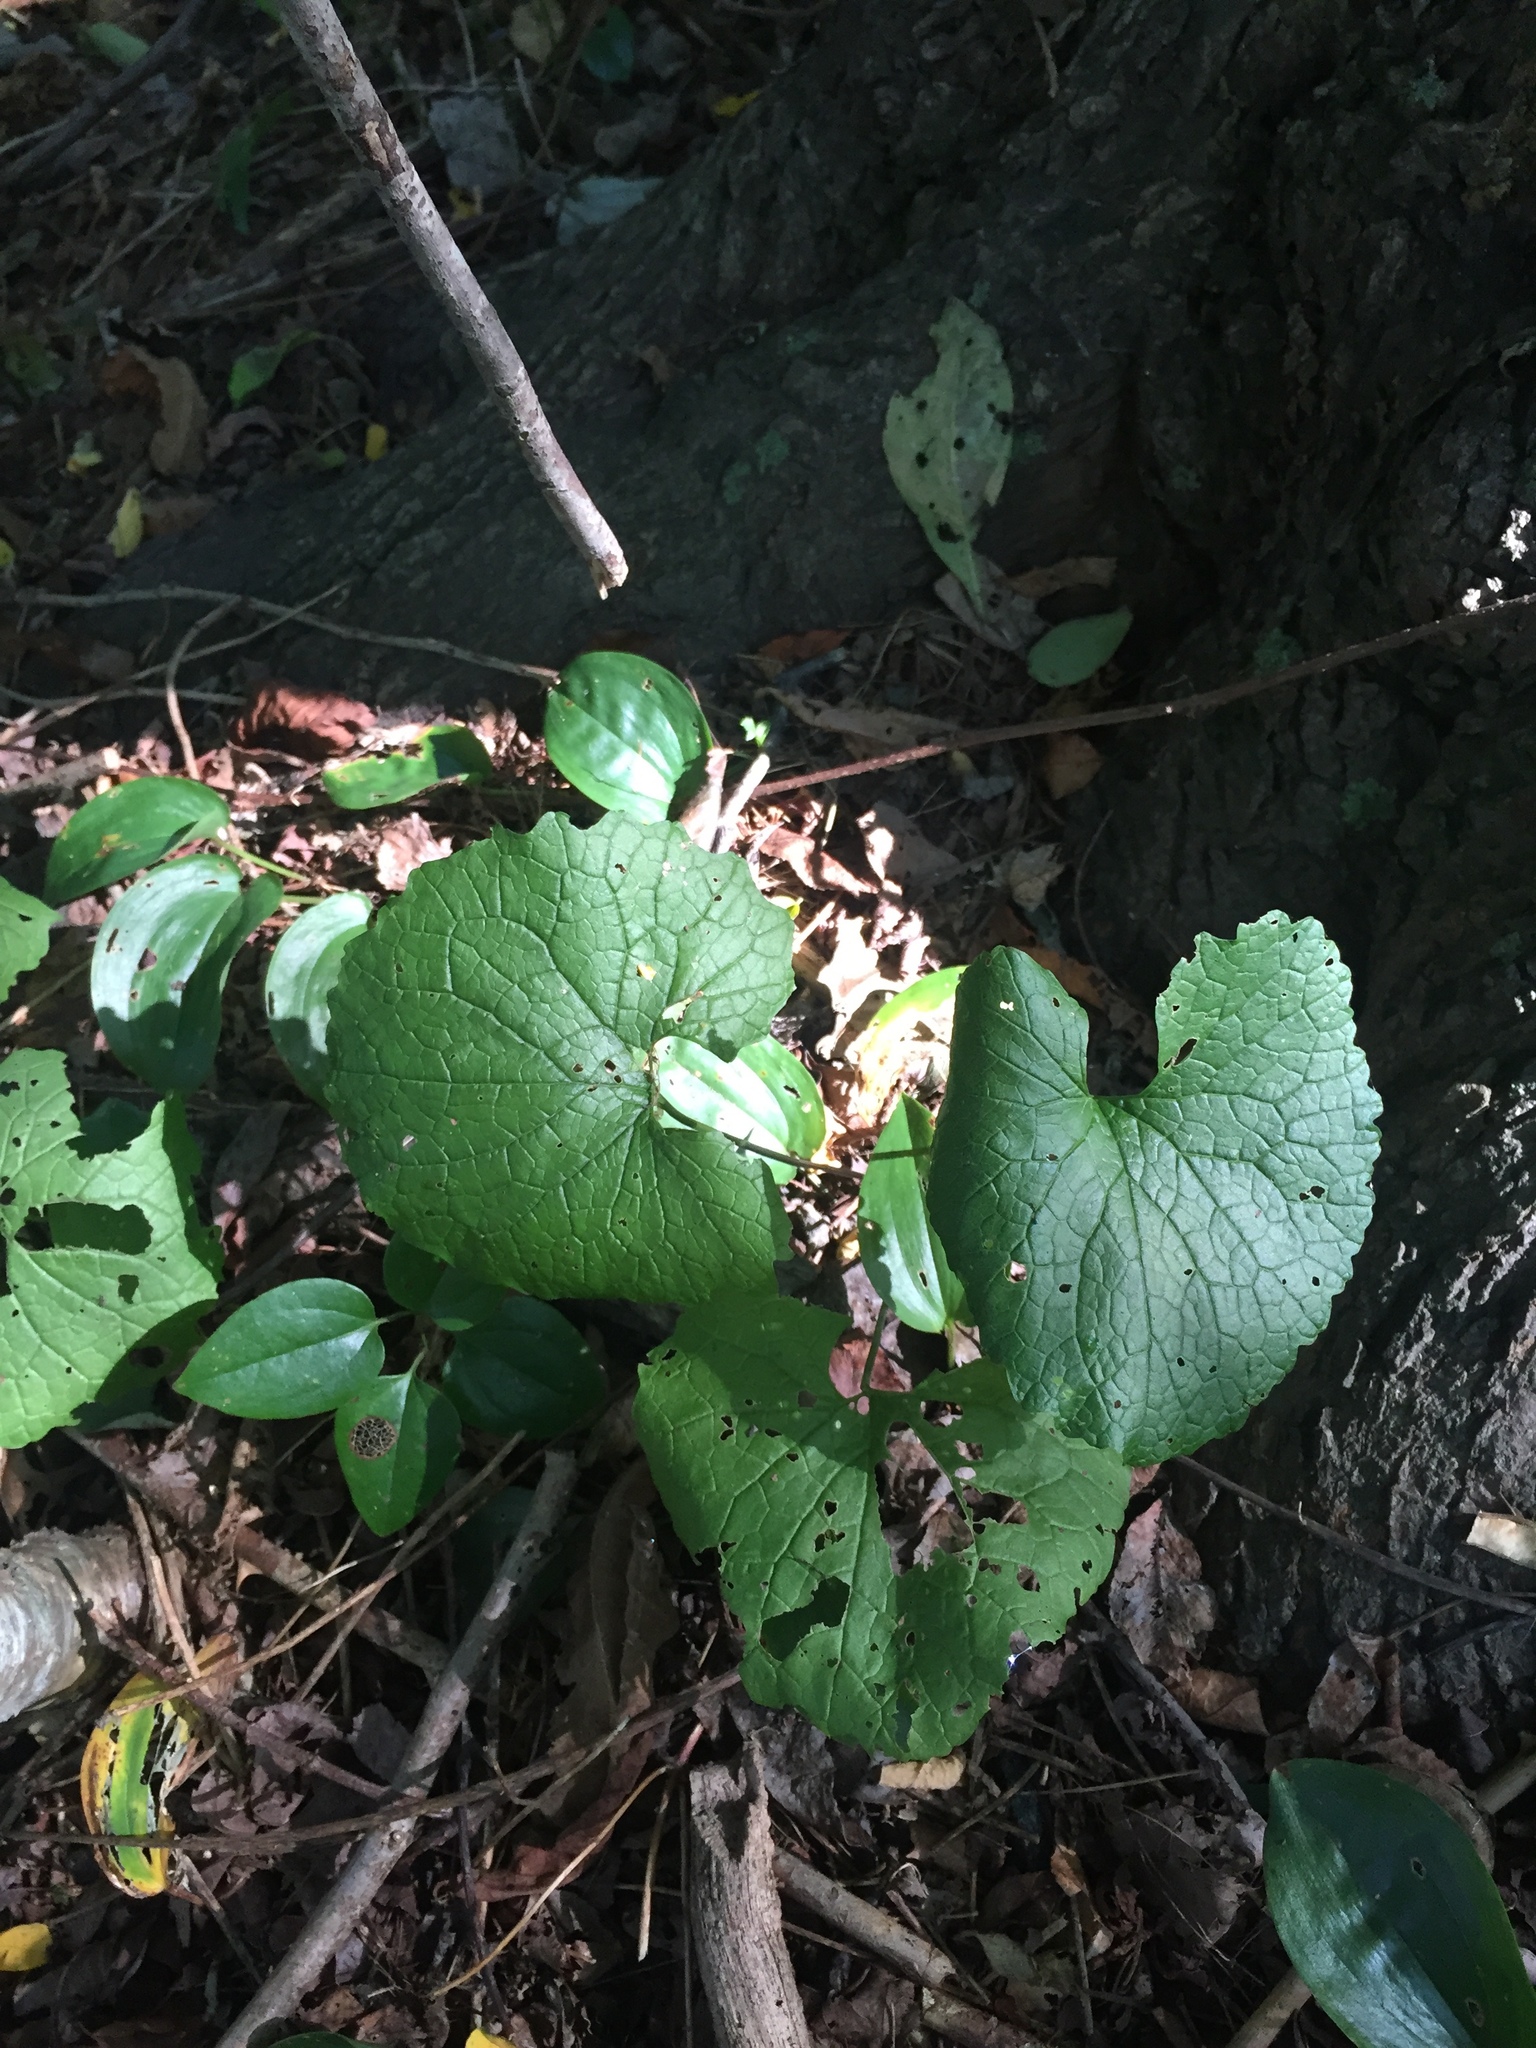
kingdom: Plantae
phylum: Tracheophyta
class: Magnoliopsida
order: Brassicales
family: Brassicaceae
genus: Alliaria
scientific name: Alliaria petiolata
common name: Garlic mustard
